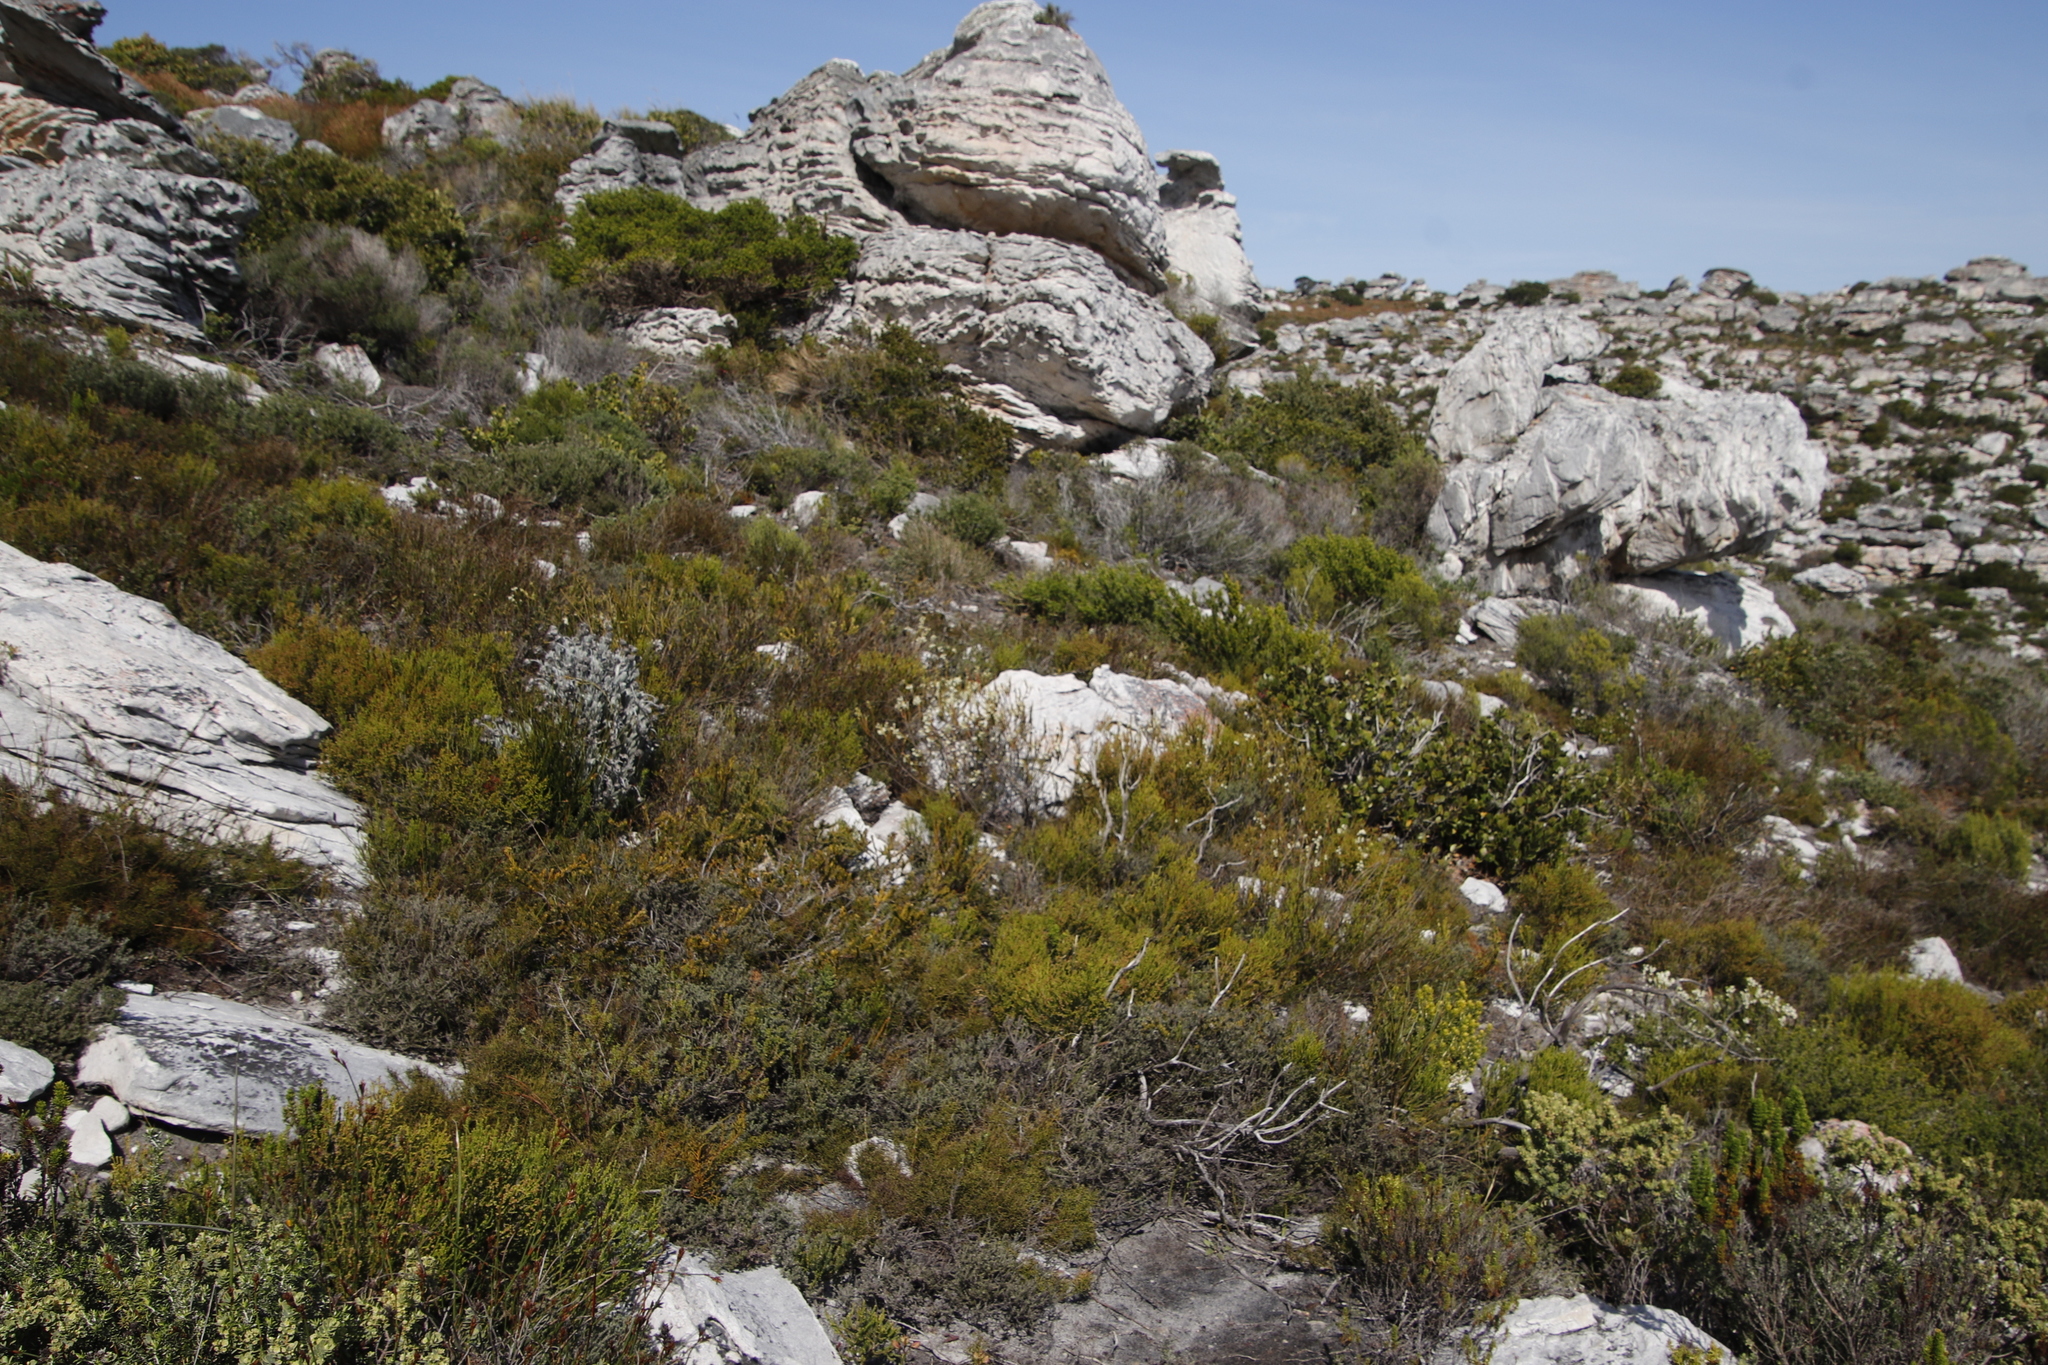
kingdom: Plantae
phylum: Tracheophyta
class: Magnoliopsida
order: Malvales
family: Thymelaeaceae
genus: Struthiola
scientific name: Struthiola ciliata
